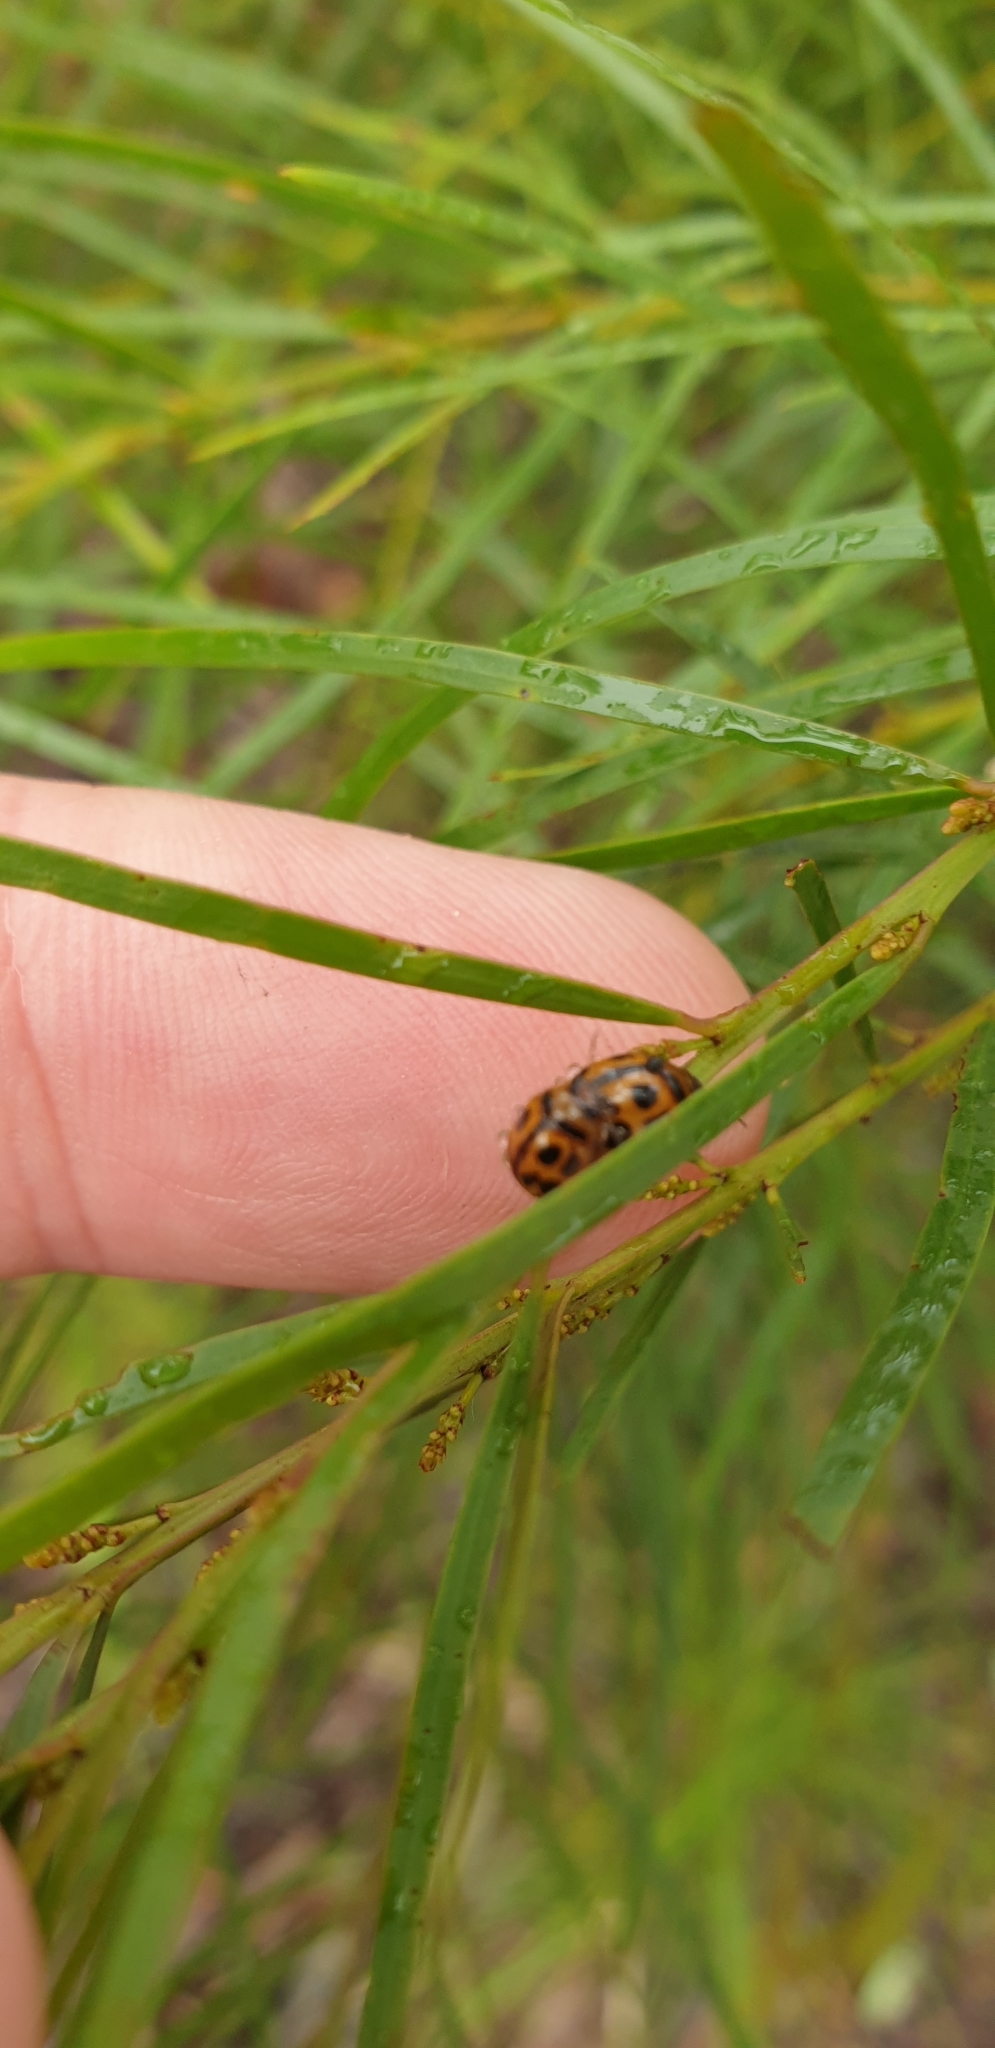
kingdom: Animalia
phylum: Arthropoda
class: Insecta
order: Coleoptera
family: Chrysomelidae
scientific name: Chrysomelidae
